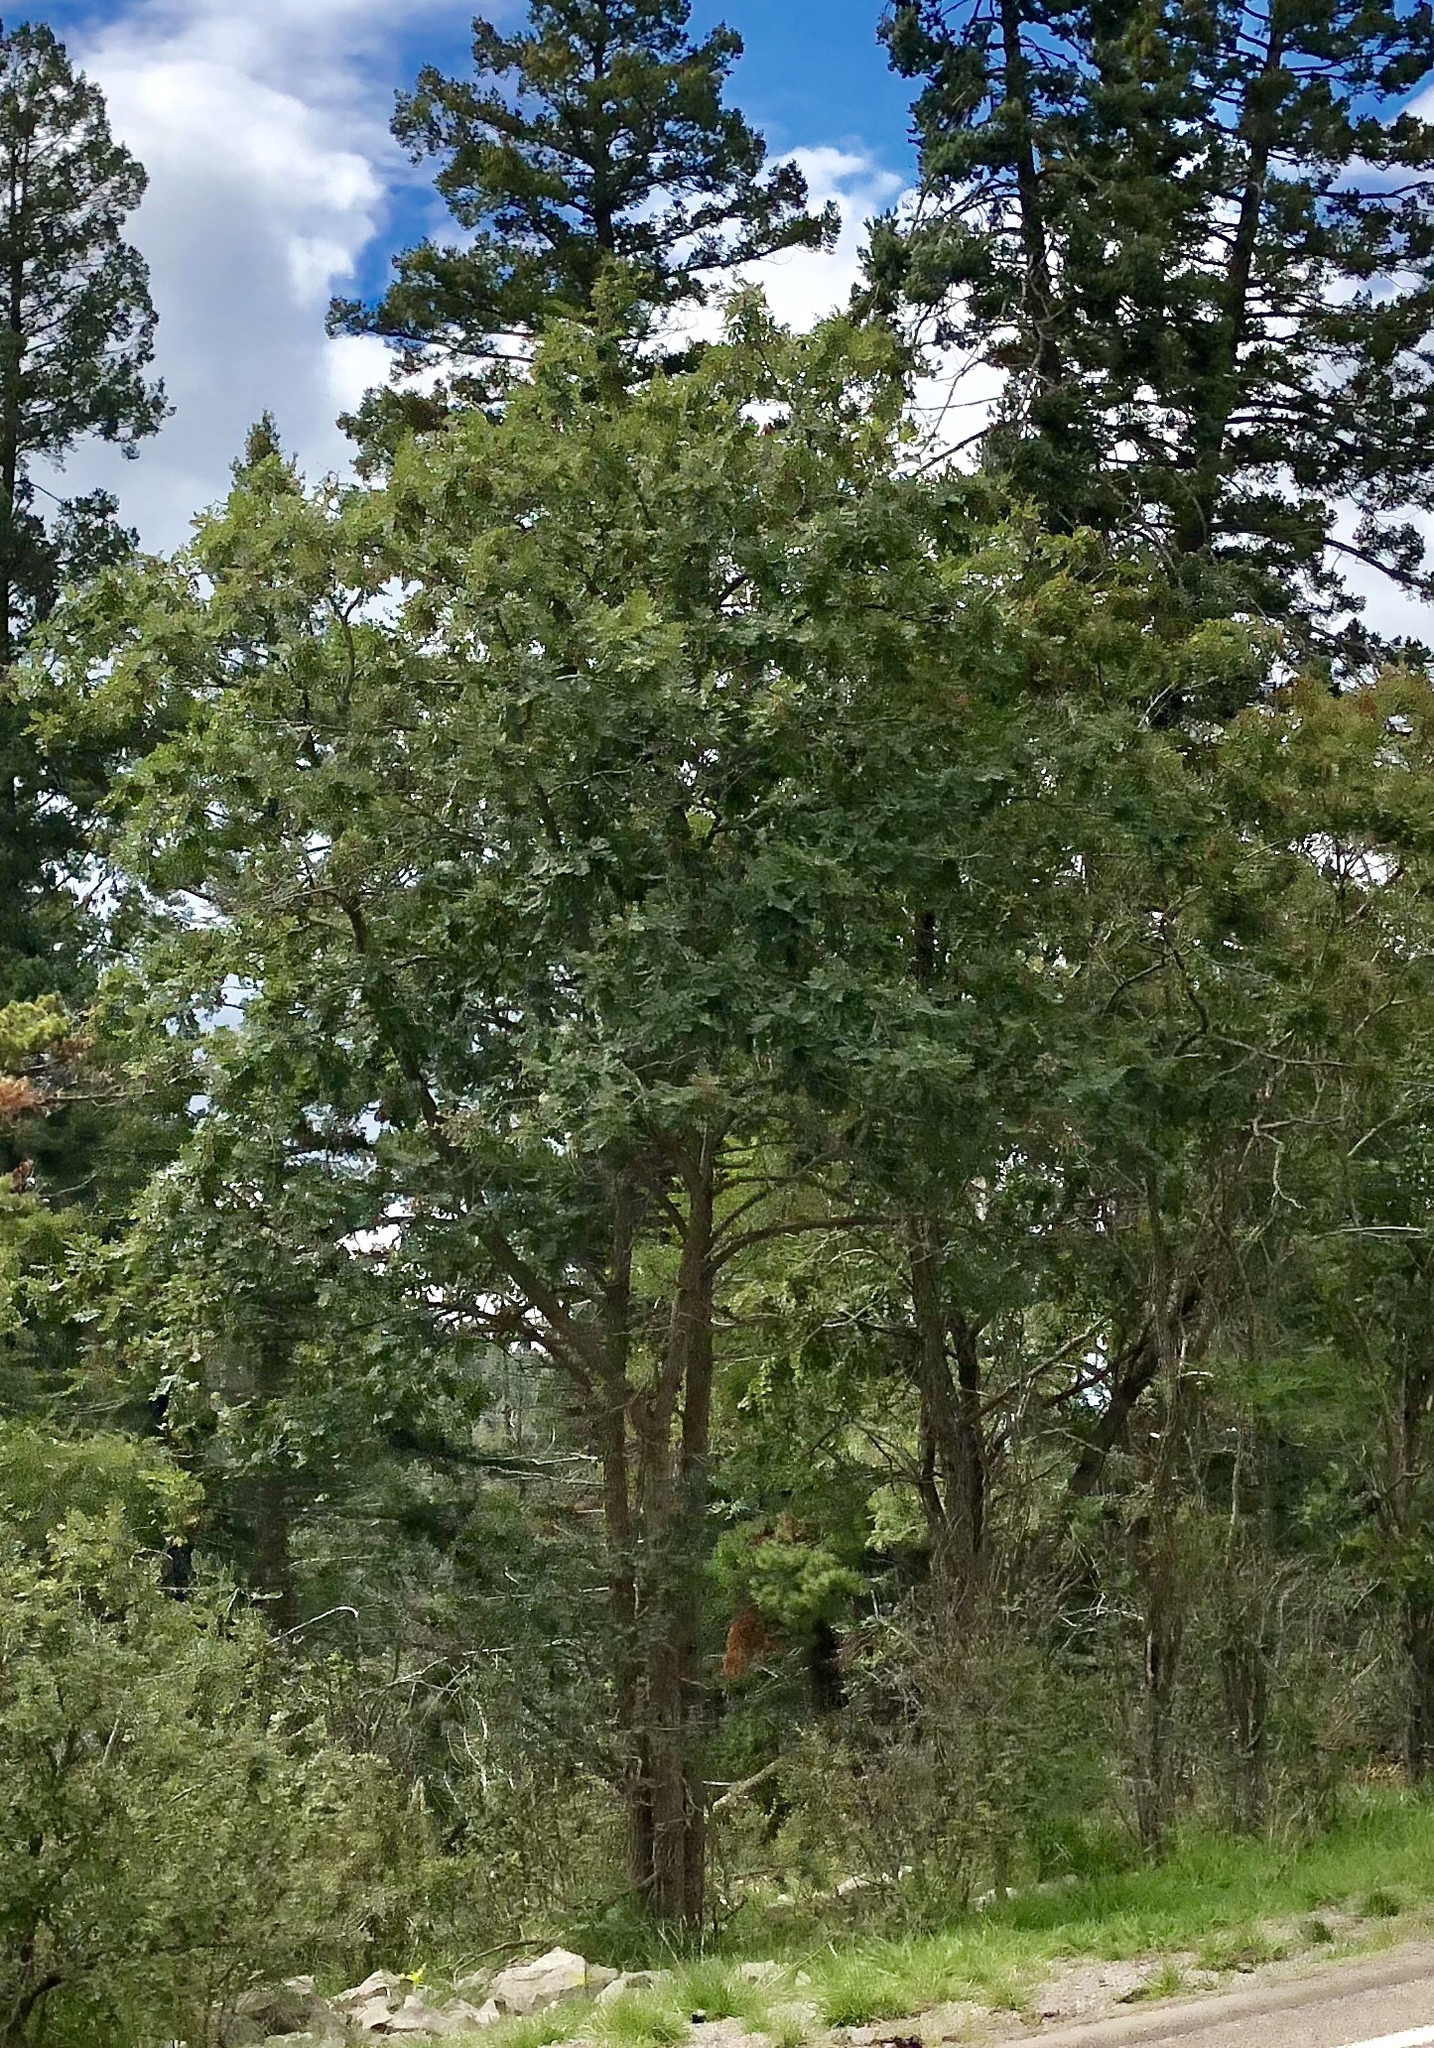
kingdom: Plantae
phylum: Tracheophyta
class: Magnoliopsida
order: Fagales
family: Fagaceae
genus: Quercus
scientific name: Quercus gambelii
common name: Gambel oak
